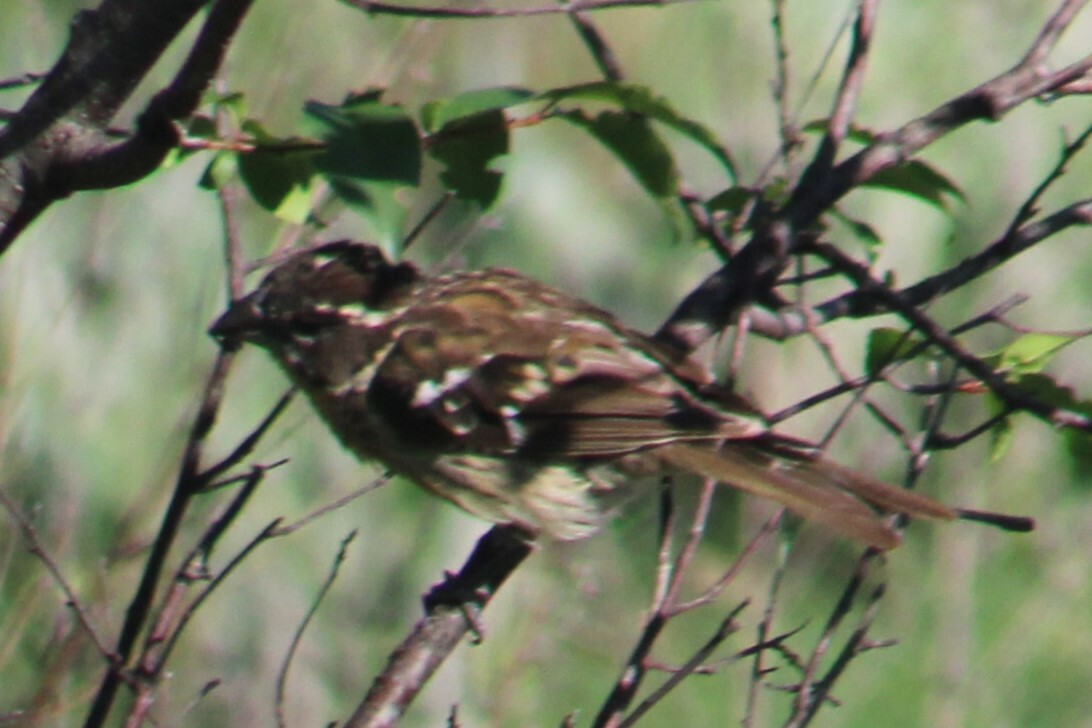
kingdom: Animalia
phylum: Chordata
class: Aves
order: Passeriformes
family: Cardinalidae
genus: Pheucticus
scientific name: Pheucticus melanocephalus
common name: Black-headed grosbeak
